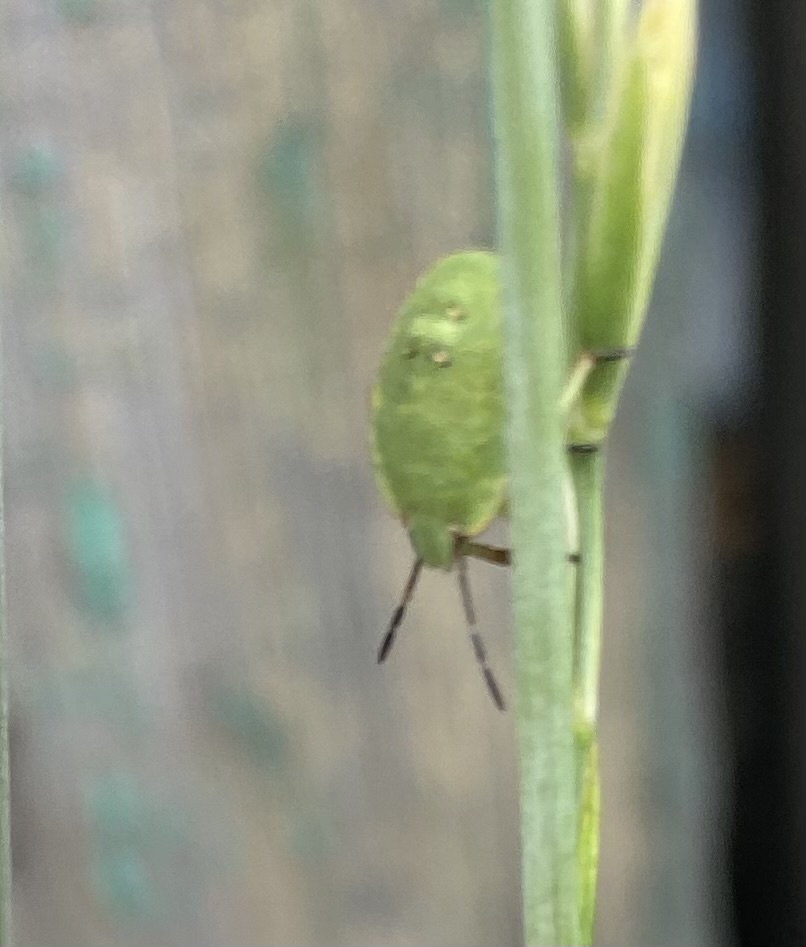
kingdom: Animalia
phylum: Arthropoda
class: Insecta
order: Hemiptera
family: Pentatomidae
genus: Palomena
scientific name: Palomena prasina
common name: Green shieldbug
